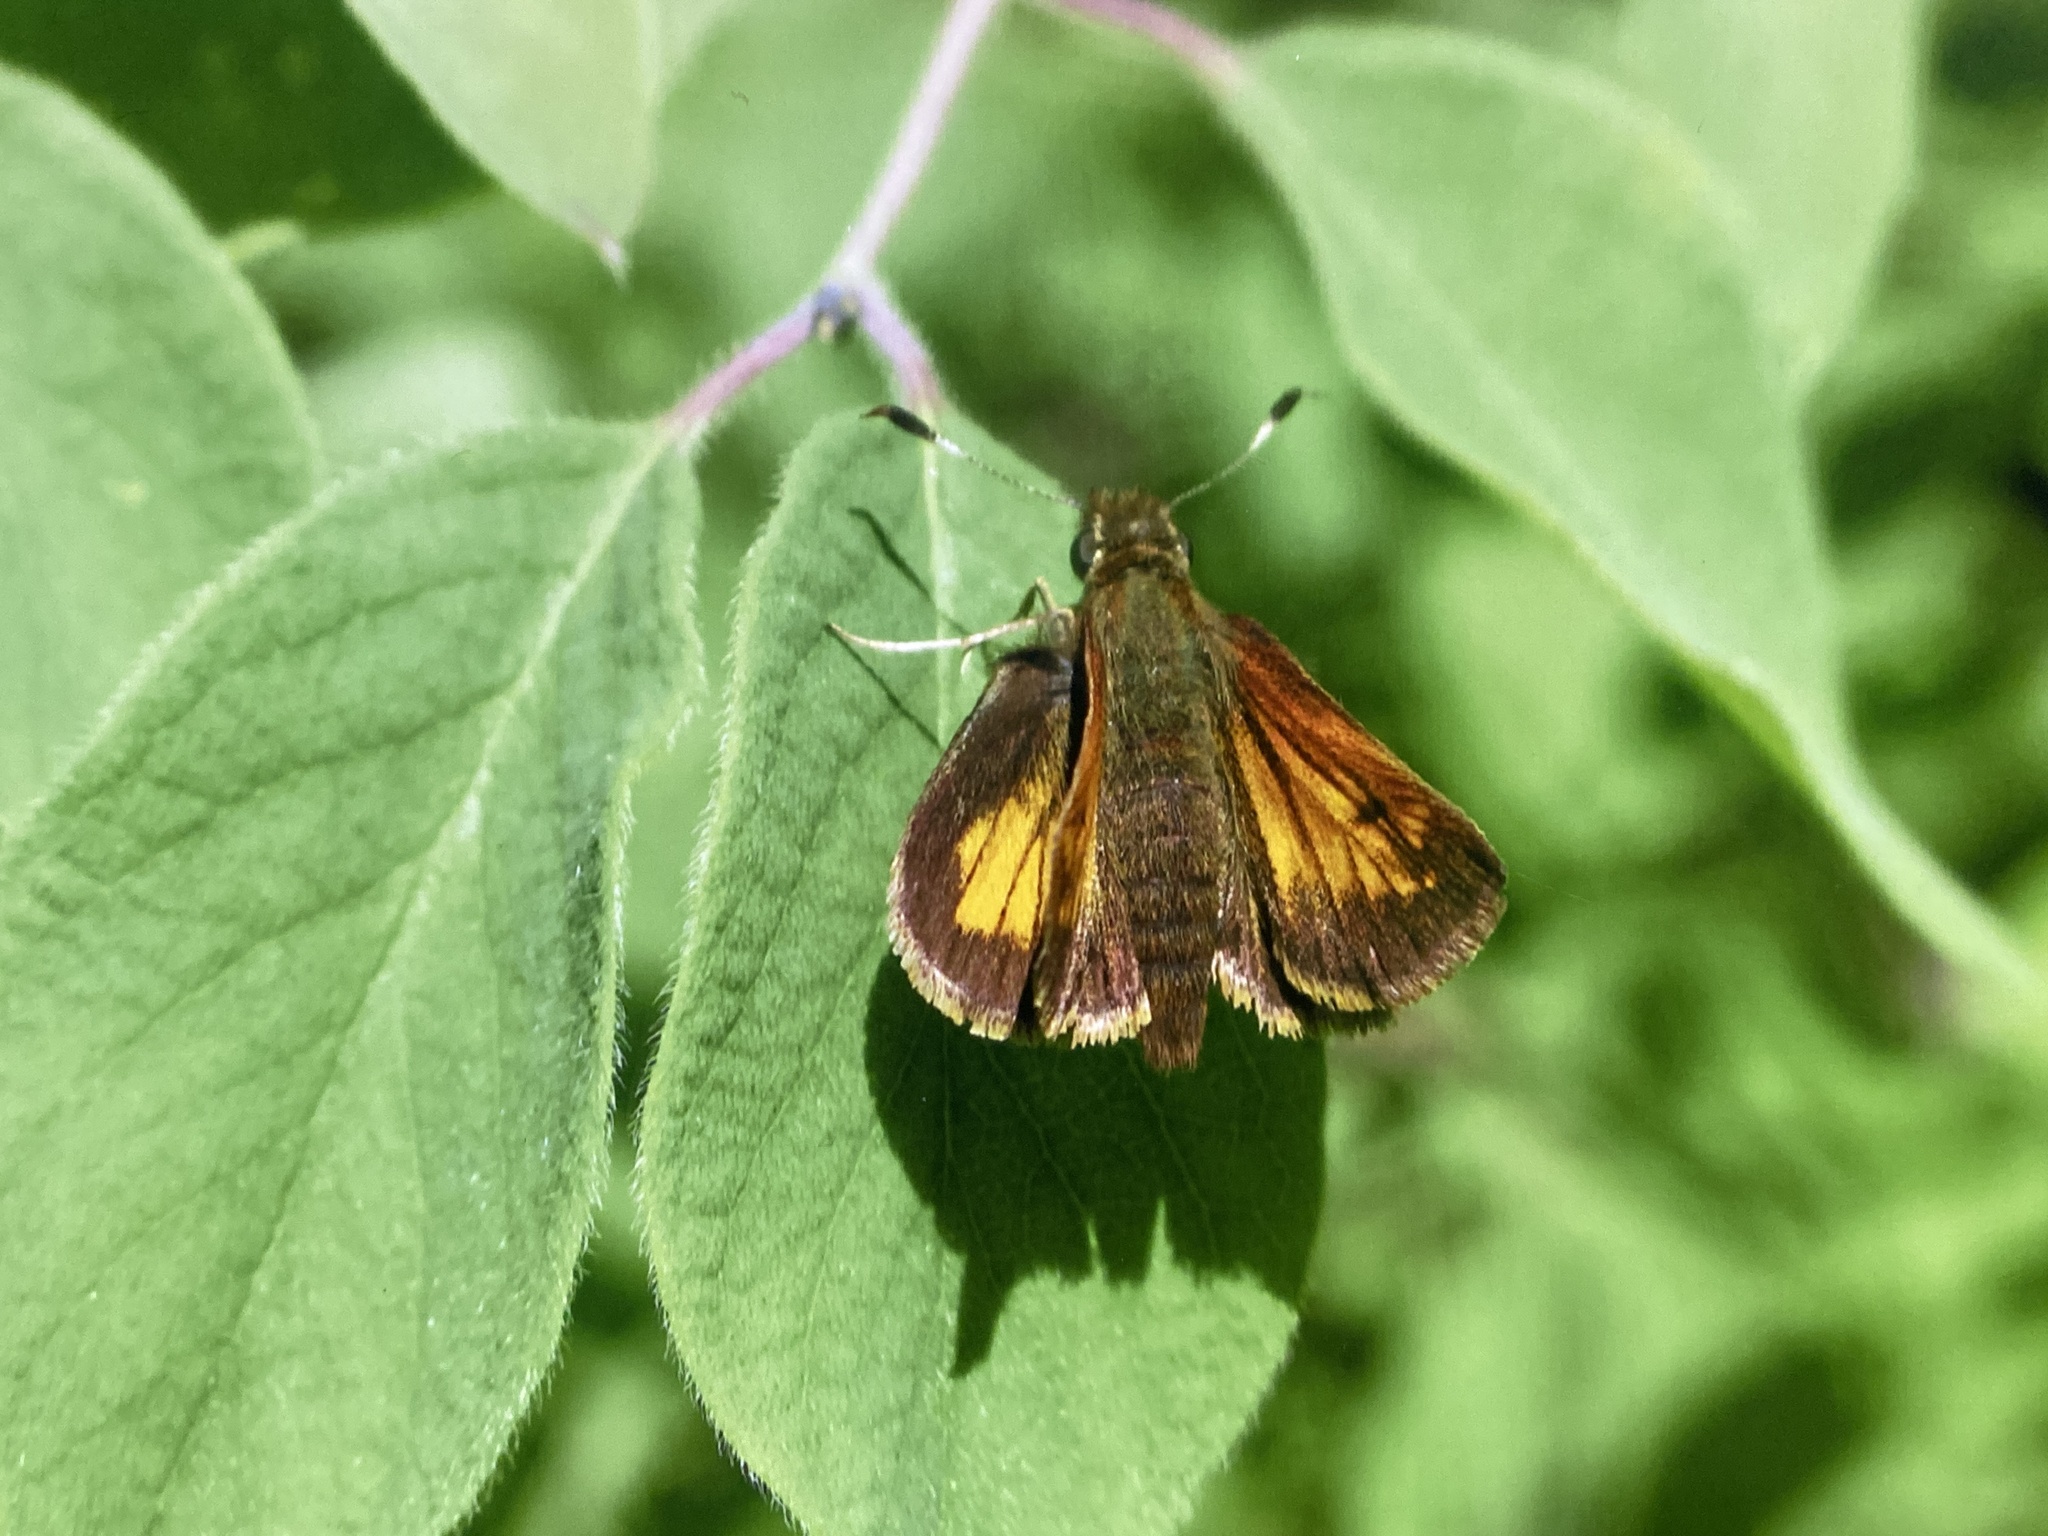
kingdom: Animalia
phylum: Arthropoda
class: Insecta
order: Lepidoptera
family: Hesperiidae
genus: Lon
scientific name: Lon hobomok
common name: Hobomok skipper
